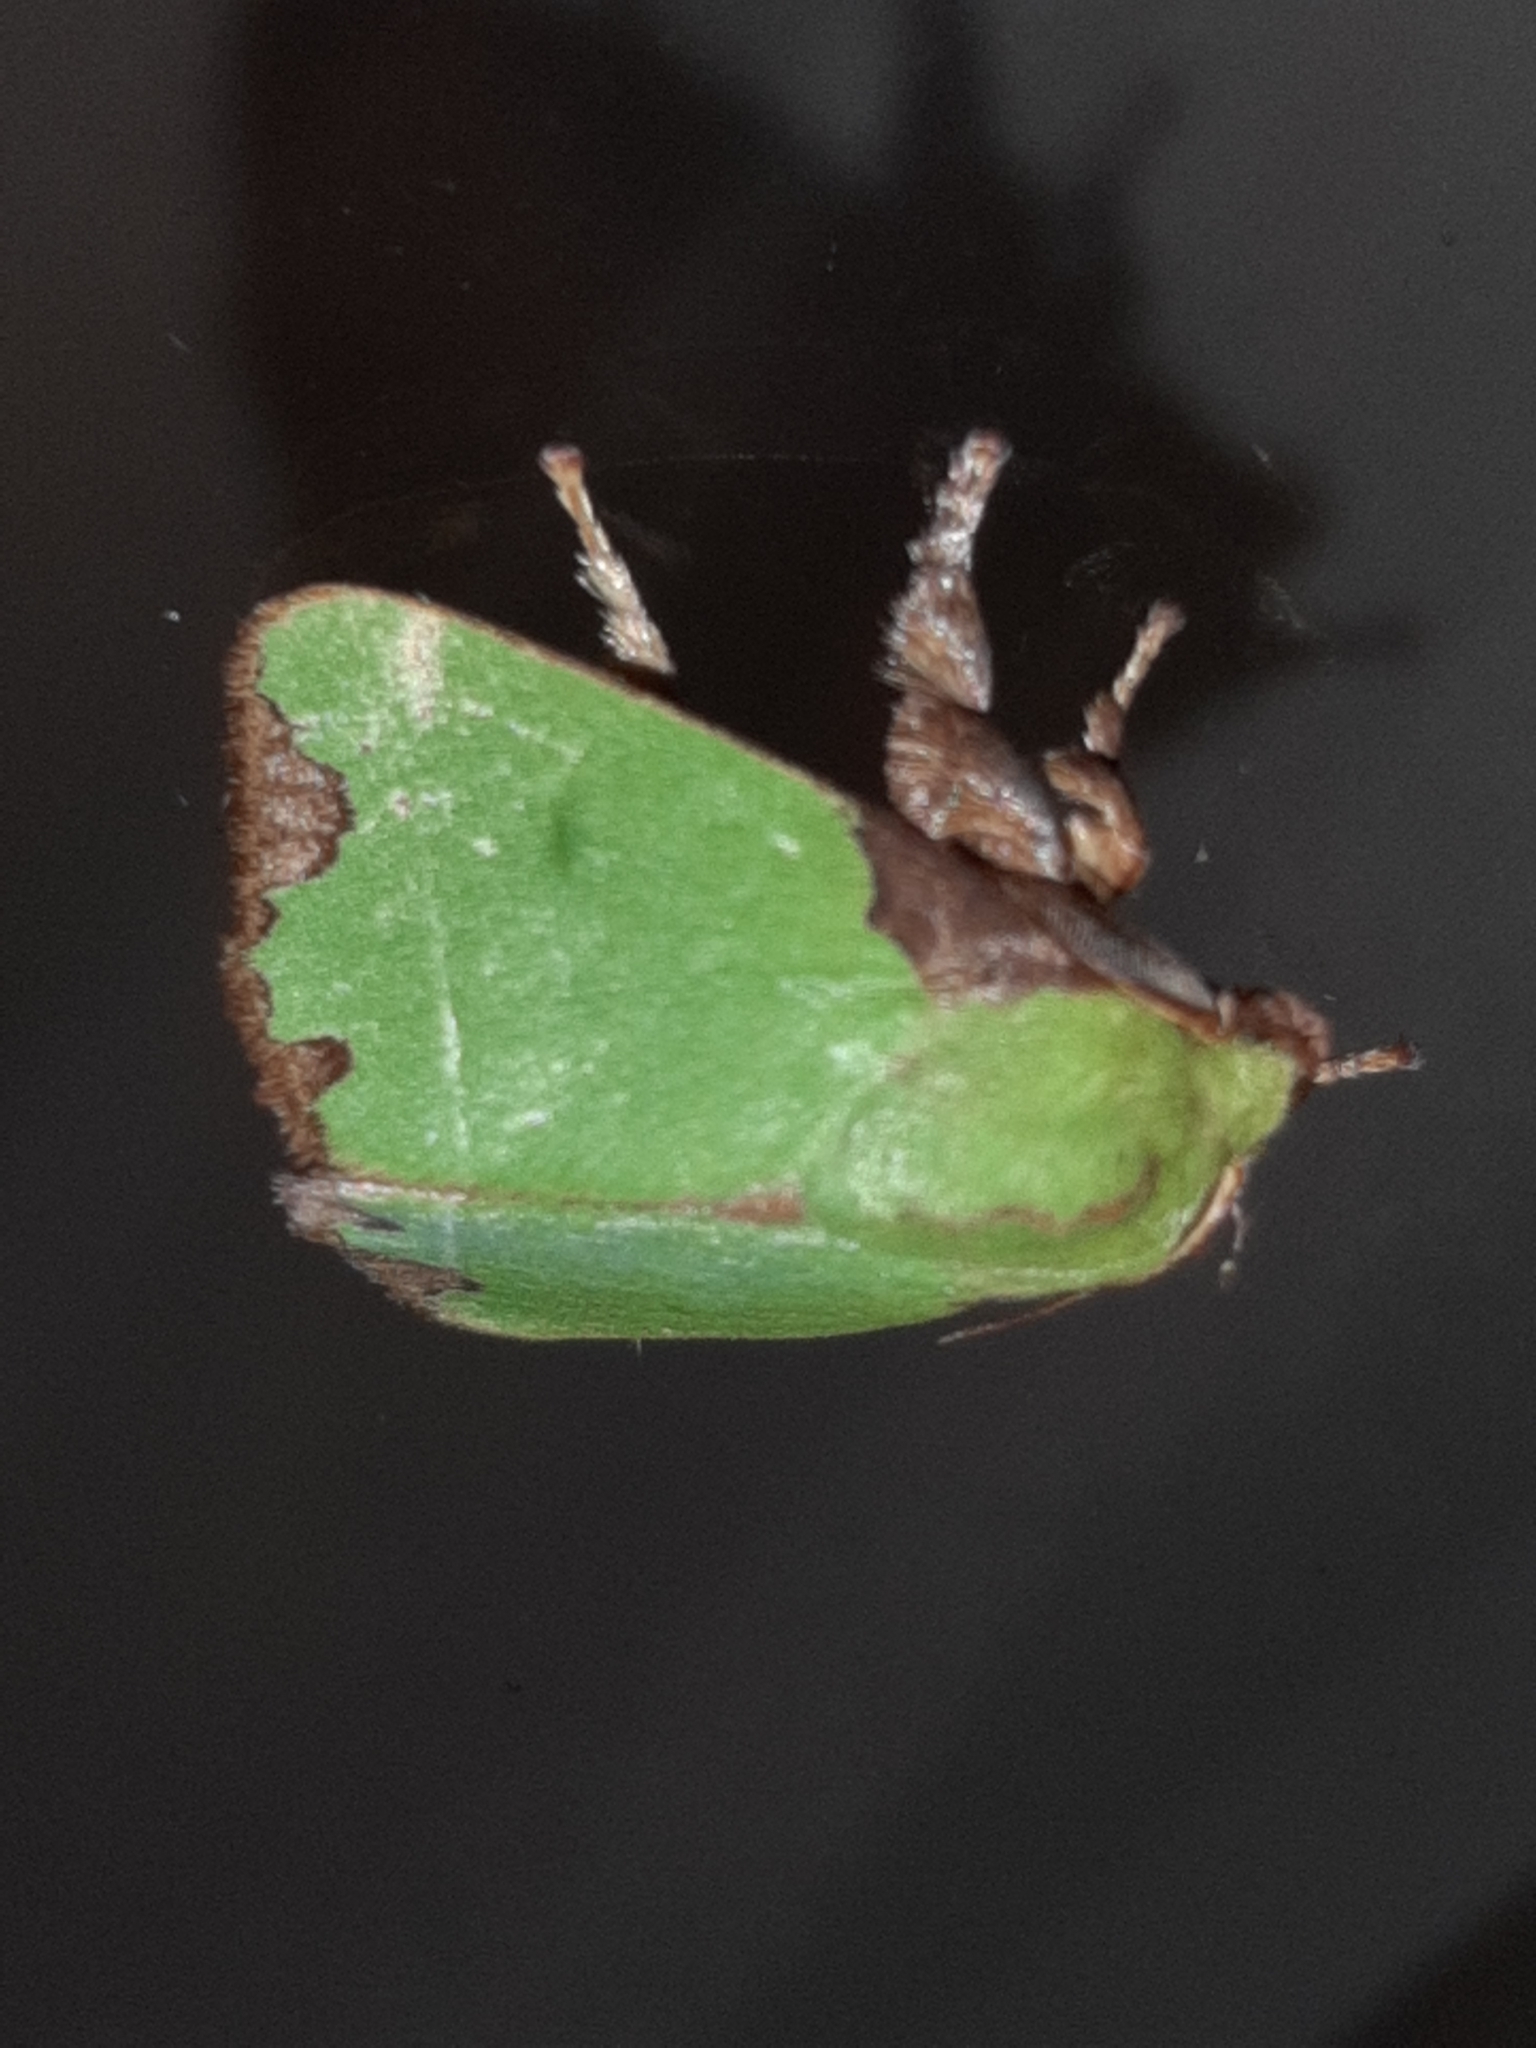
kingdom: Animalia
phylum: Arthropoda
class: Insecta
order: Lepidoptera
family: Limacodidae
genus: Parasa
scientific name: Parasa imitata
